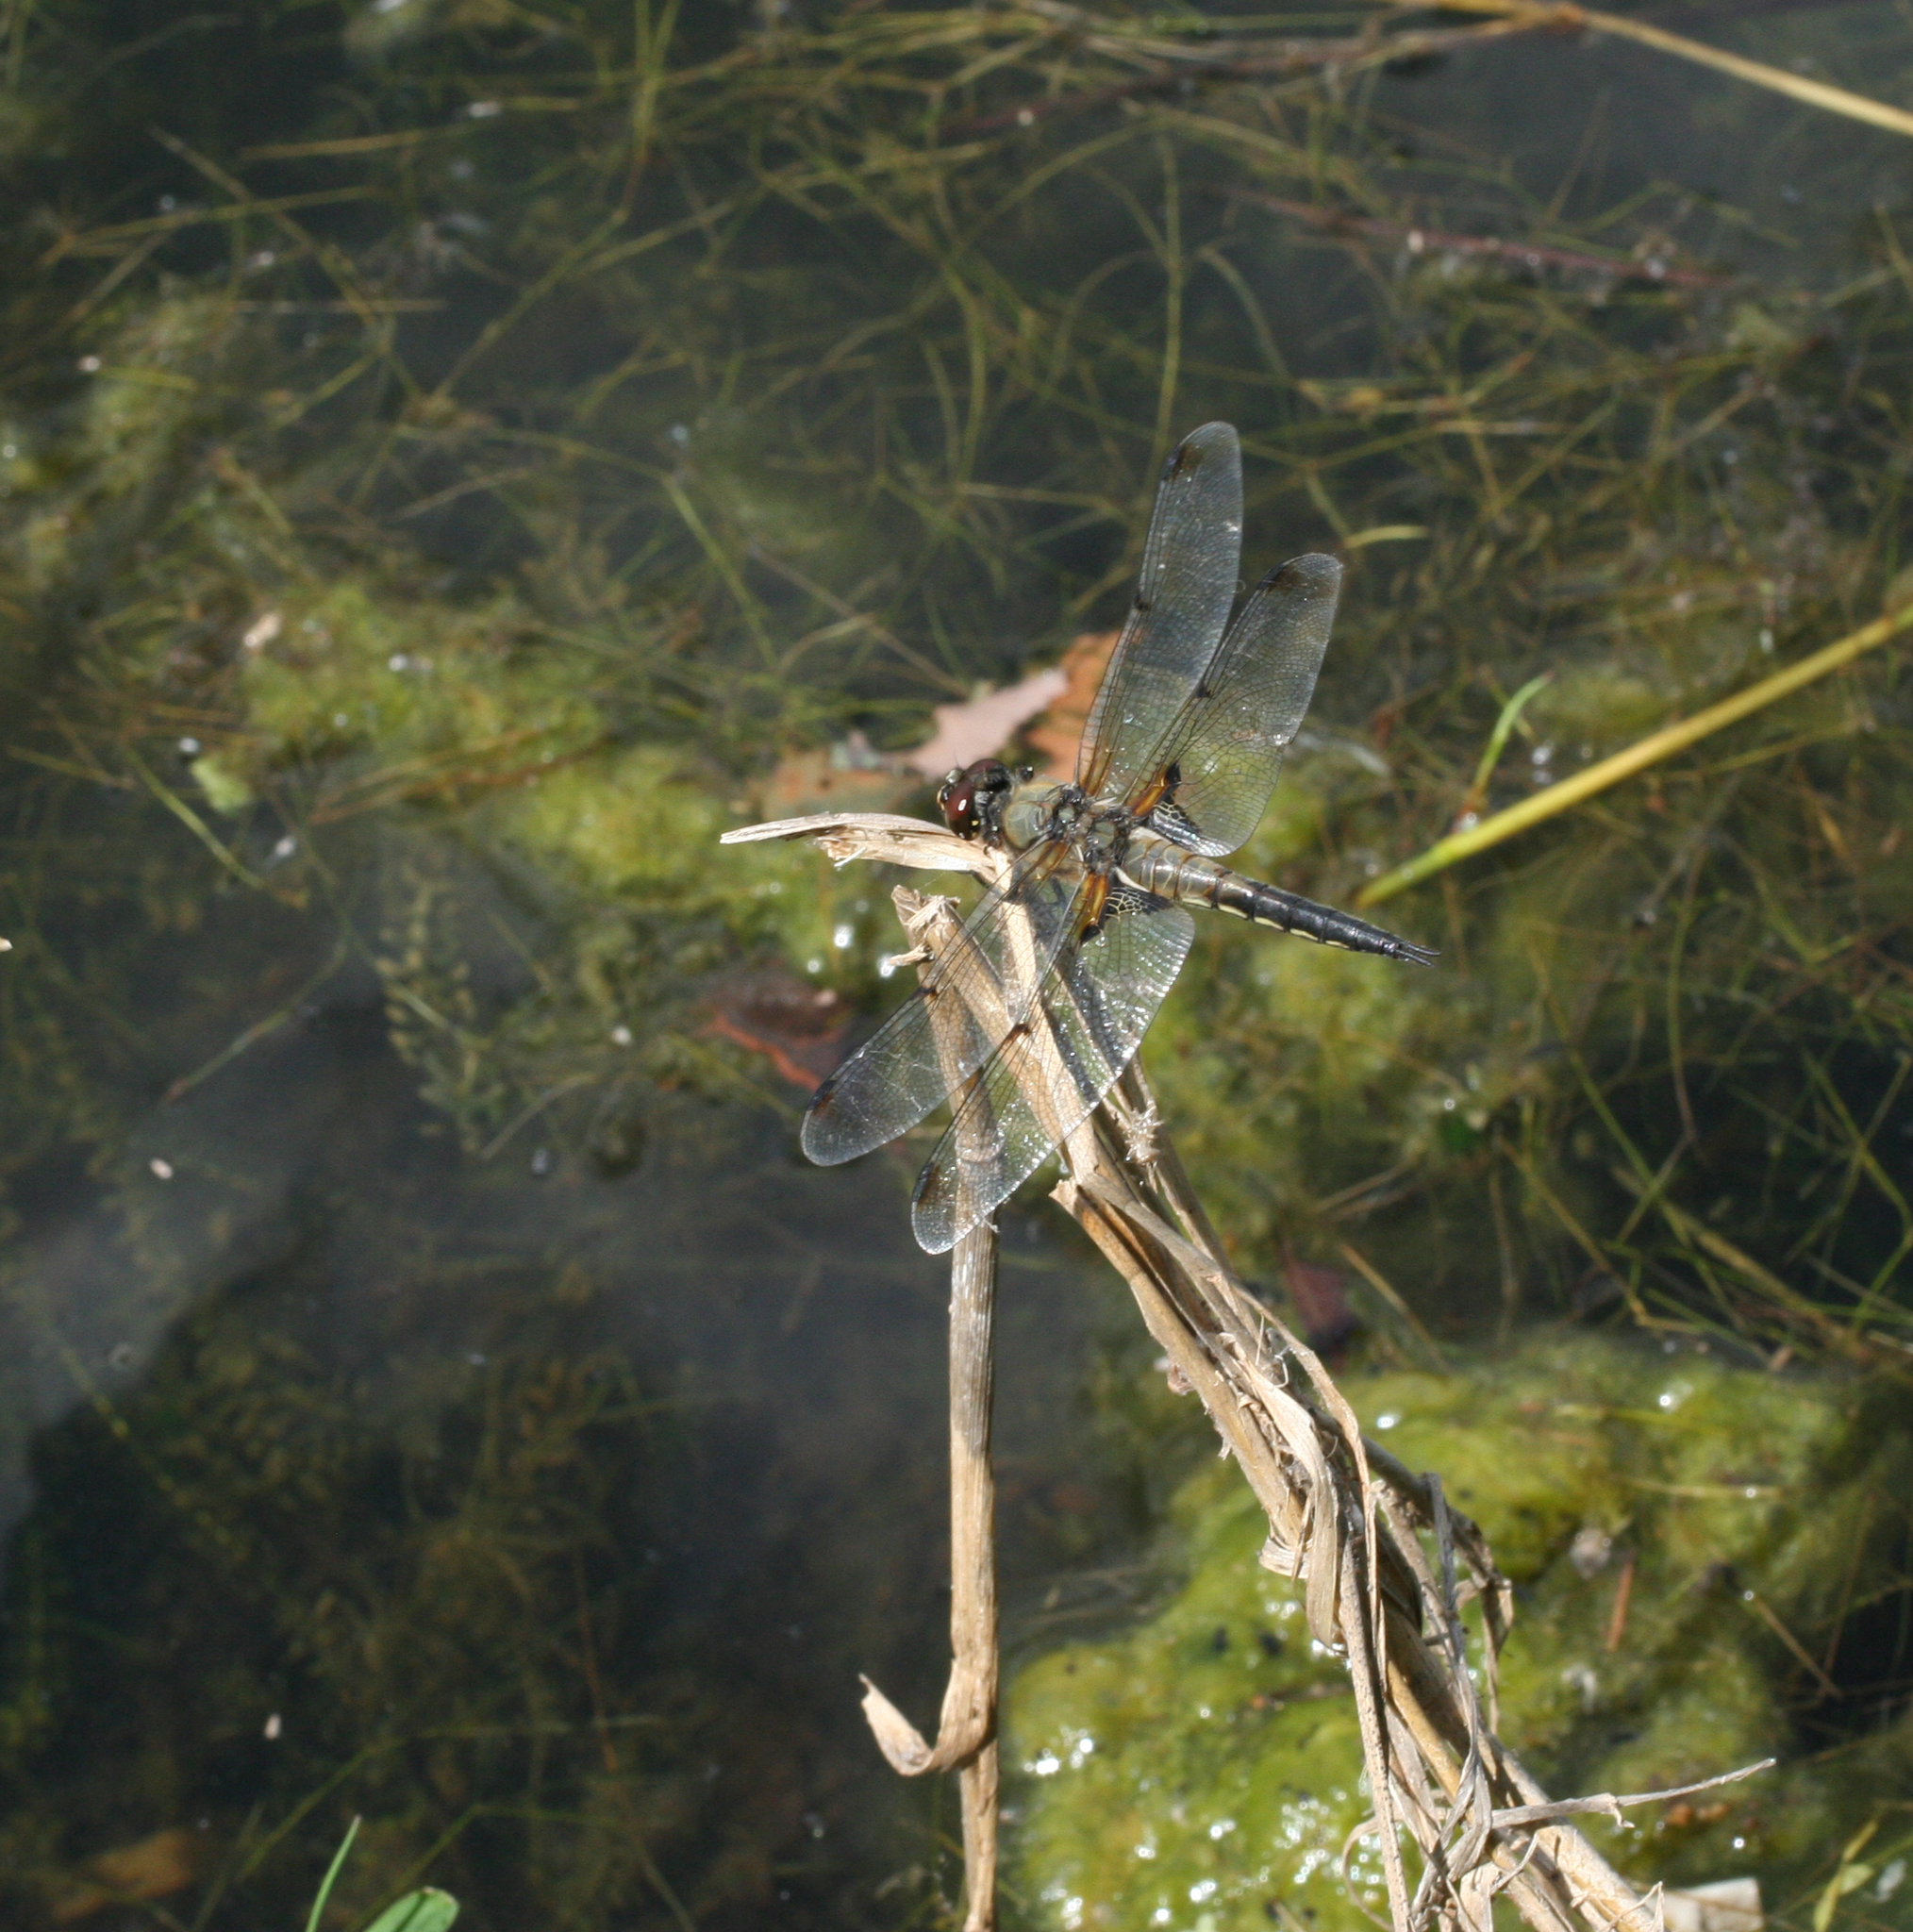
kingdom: Animalia
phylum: Arthropoda
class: Insecta
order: Odonata
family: Libellulidae
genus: Libellula
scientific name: Libellula quadrimaculata
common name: Four-spotted chaser
